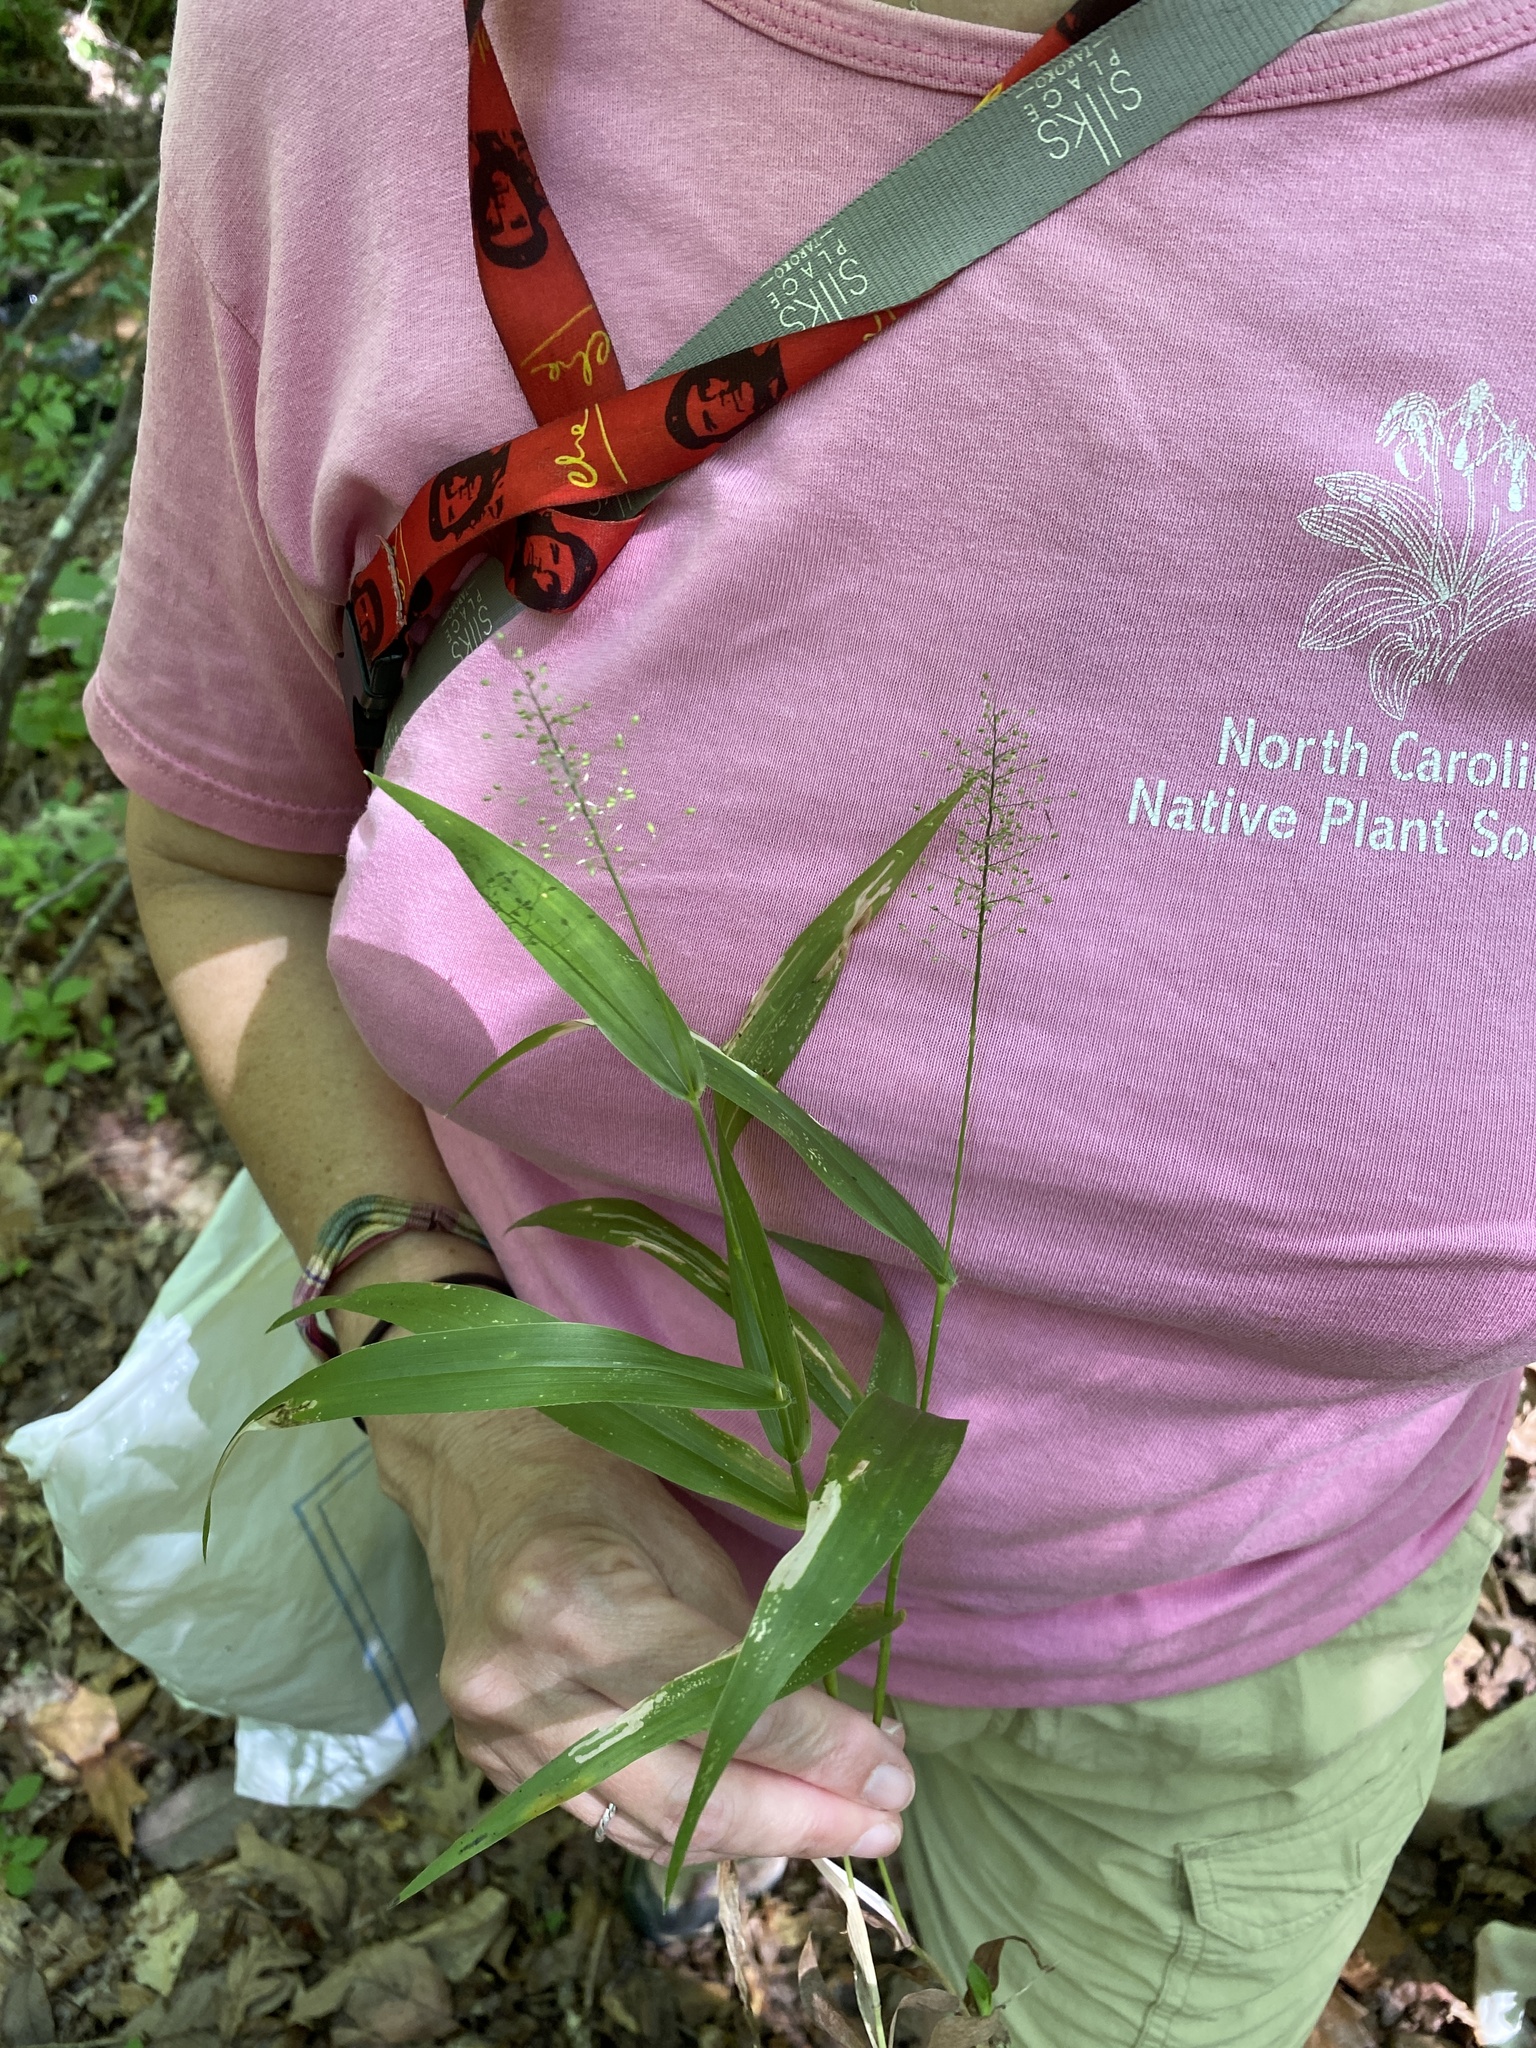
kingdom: Plantae
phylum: Tracheophyta
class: Liliopsida
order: Poales
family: Poaceae
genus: Dichanthelium
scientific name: Dichanthelium polyanthes
